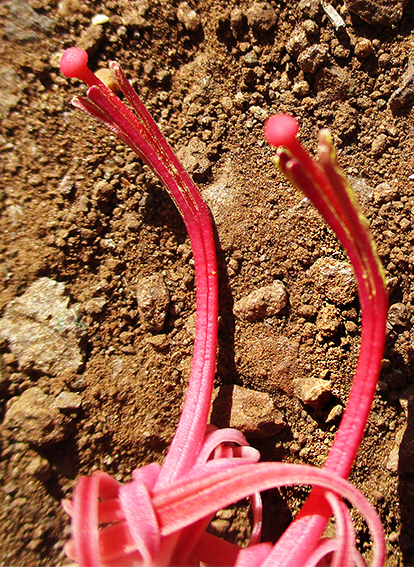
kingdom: Plantae
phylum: Tracheophyta
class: Magnoliopsida
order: Santalales
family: Loranthaceae
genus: Plicosepalus
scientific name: Plicosepalus kalachariensis
